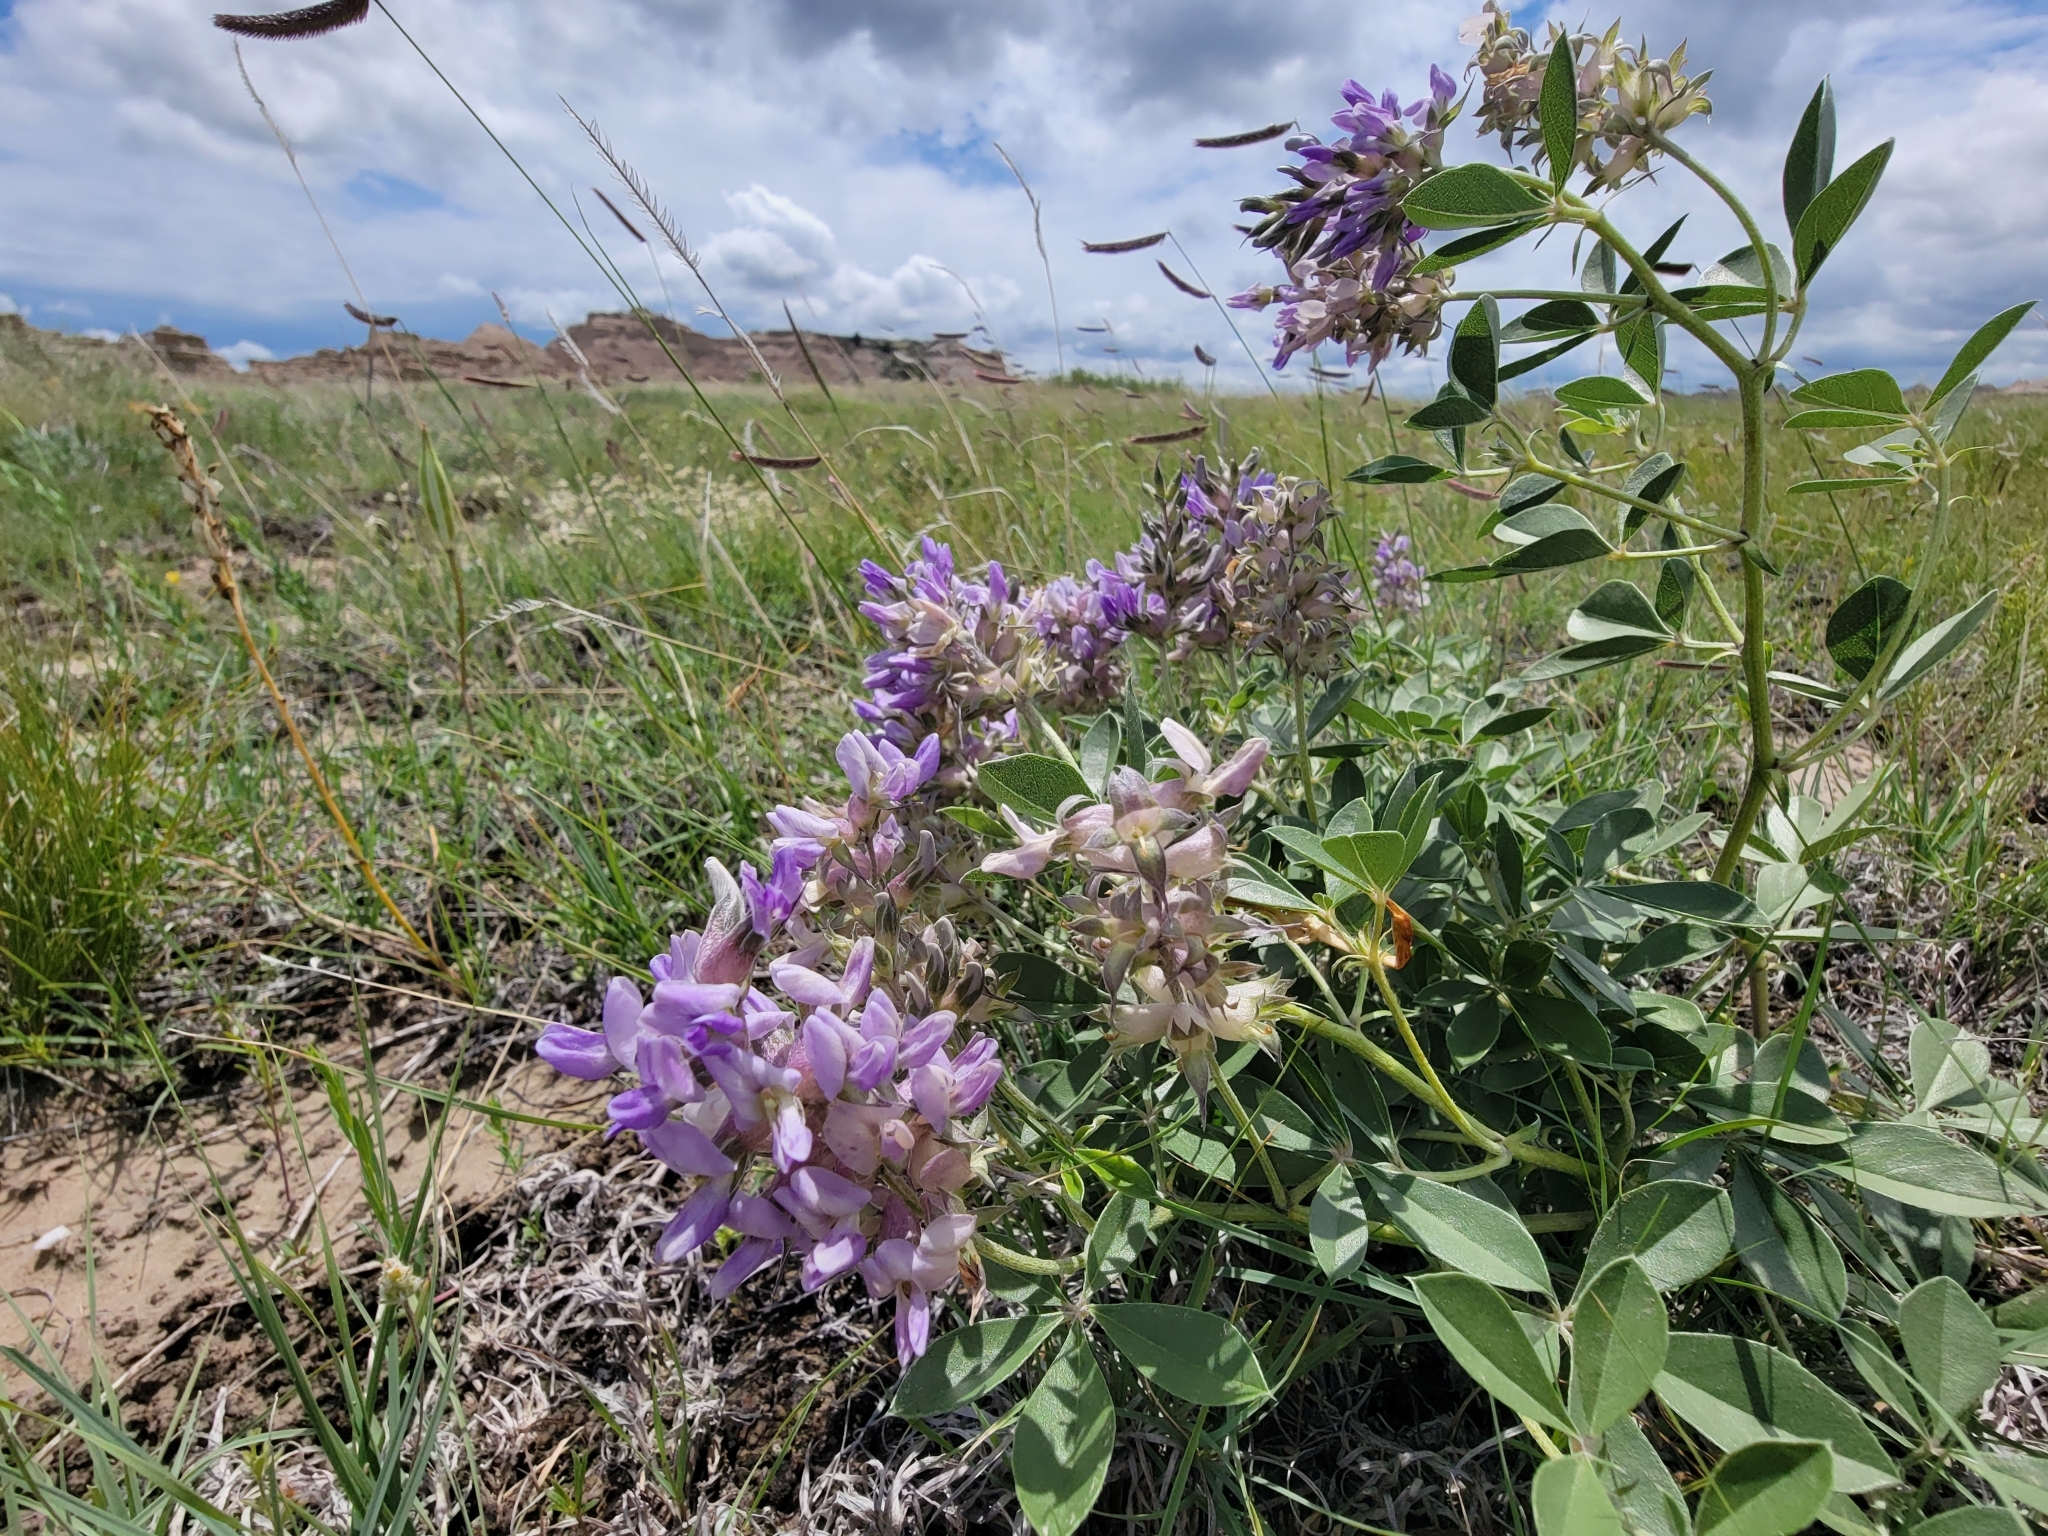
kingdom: Plantae
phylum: Tracheophyta
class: Magnoliopsida
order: Fabales
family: Fabaceae
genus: Pediomelum
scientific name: Pediomelum cuspidatum
